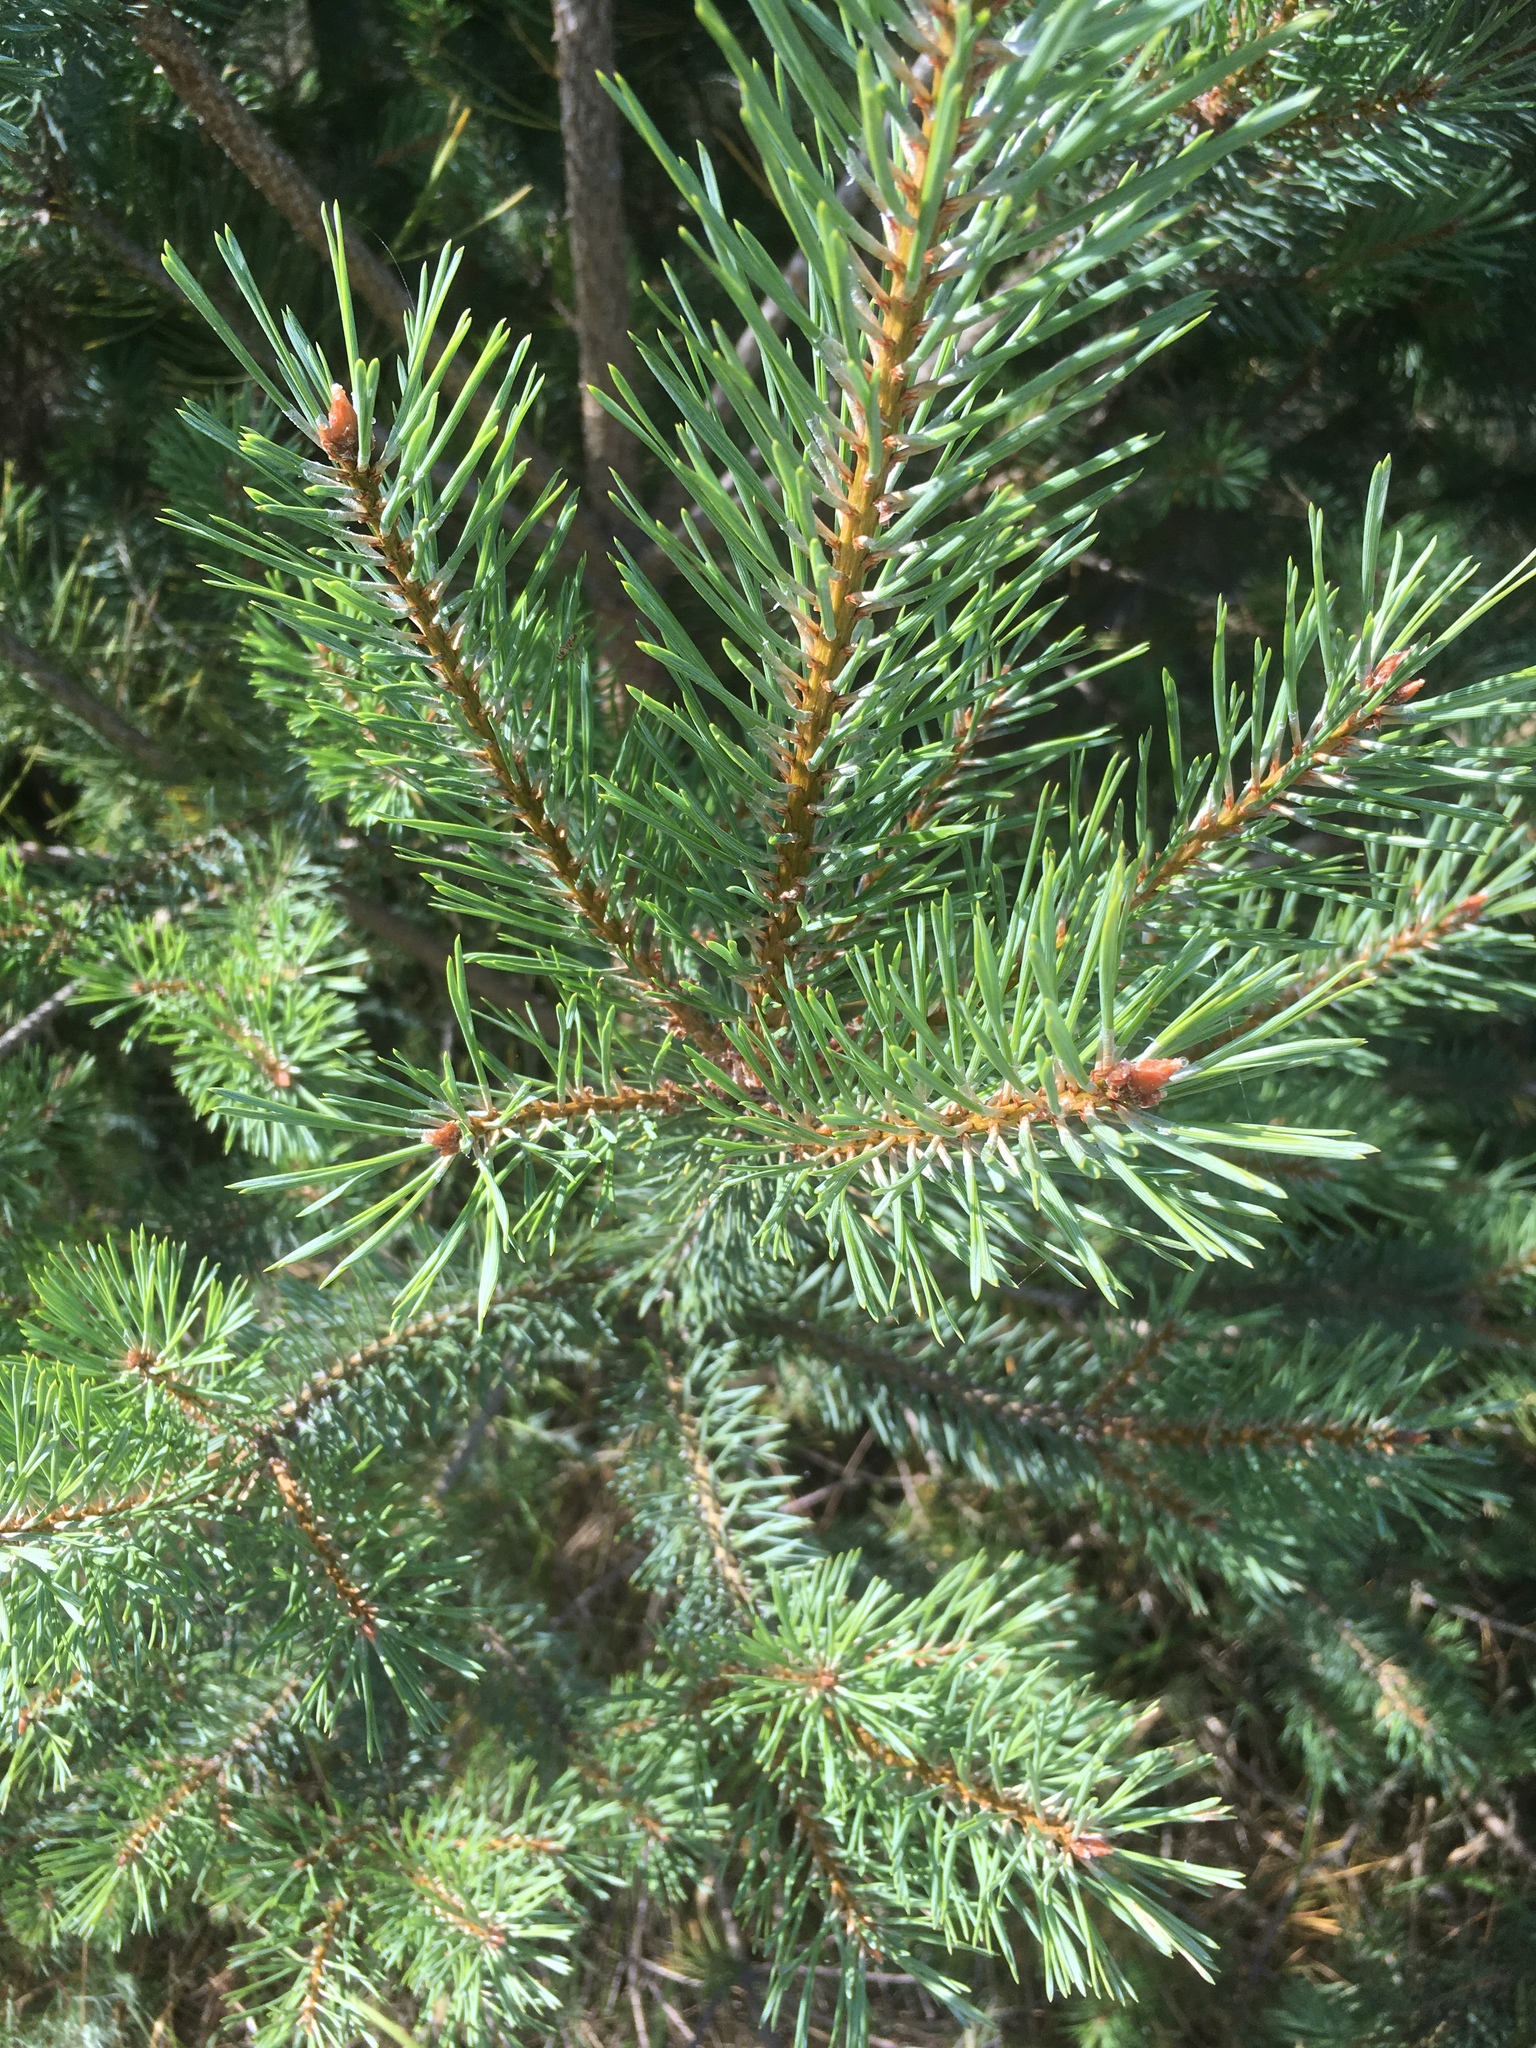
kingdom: Plantae
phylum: Tracheophyta
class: Pinopsida
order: Pinales
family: Pinaceae
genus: Picea
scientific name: Picea abies
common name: Norway spruce
